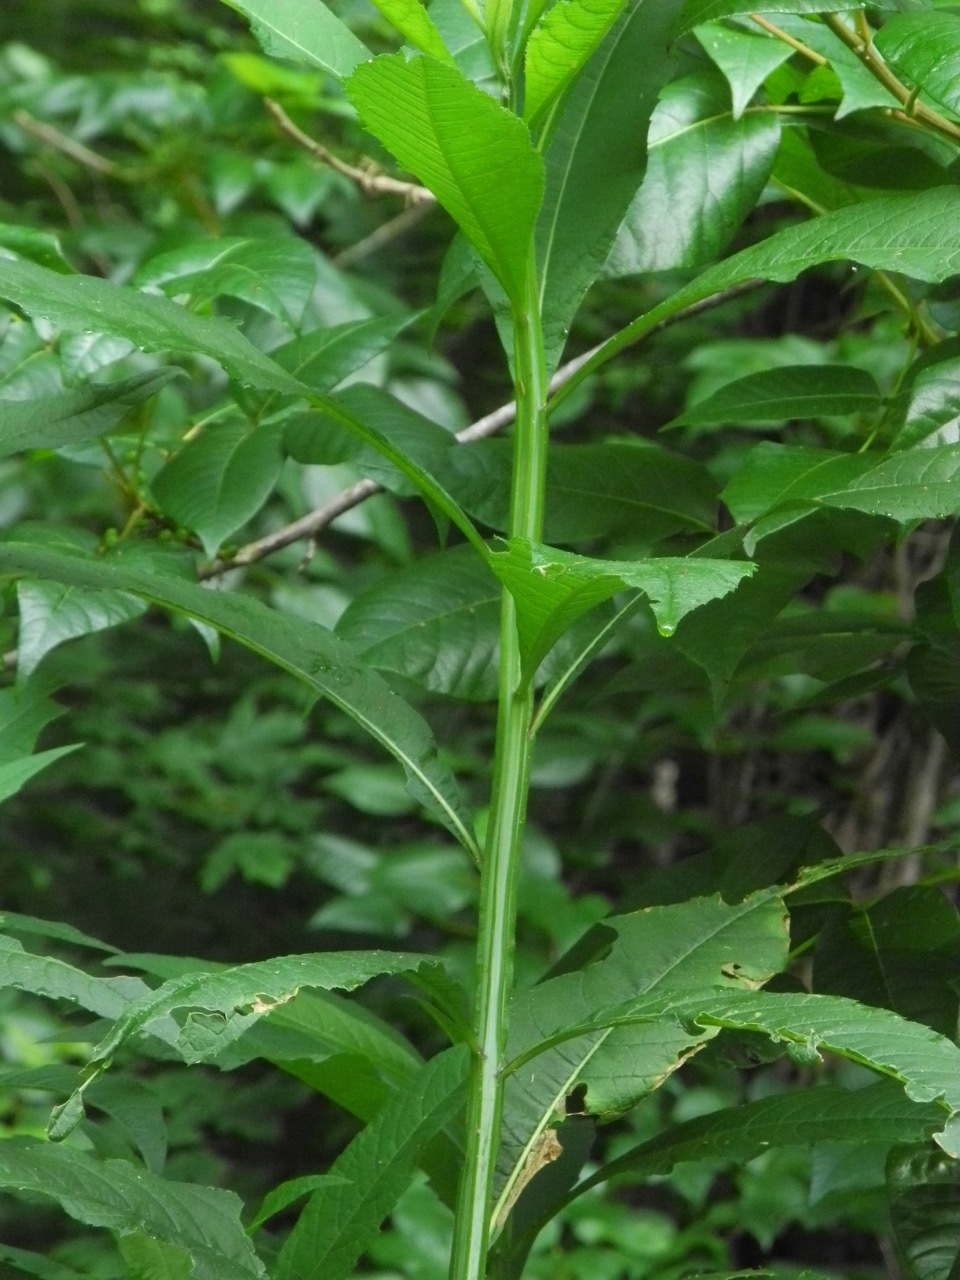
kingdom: Plantae
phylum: Tracheophyta
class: Magnoliopsida
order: Asterales
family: Asteraceae
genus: Verbesina
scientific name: Verbesina alternifolia
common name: Wingstem
